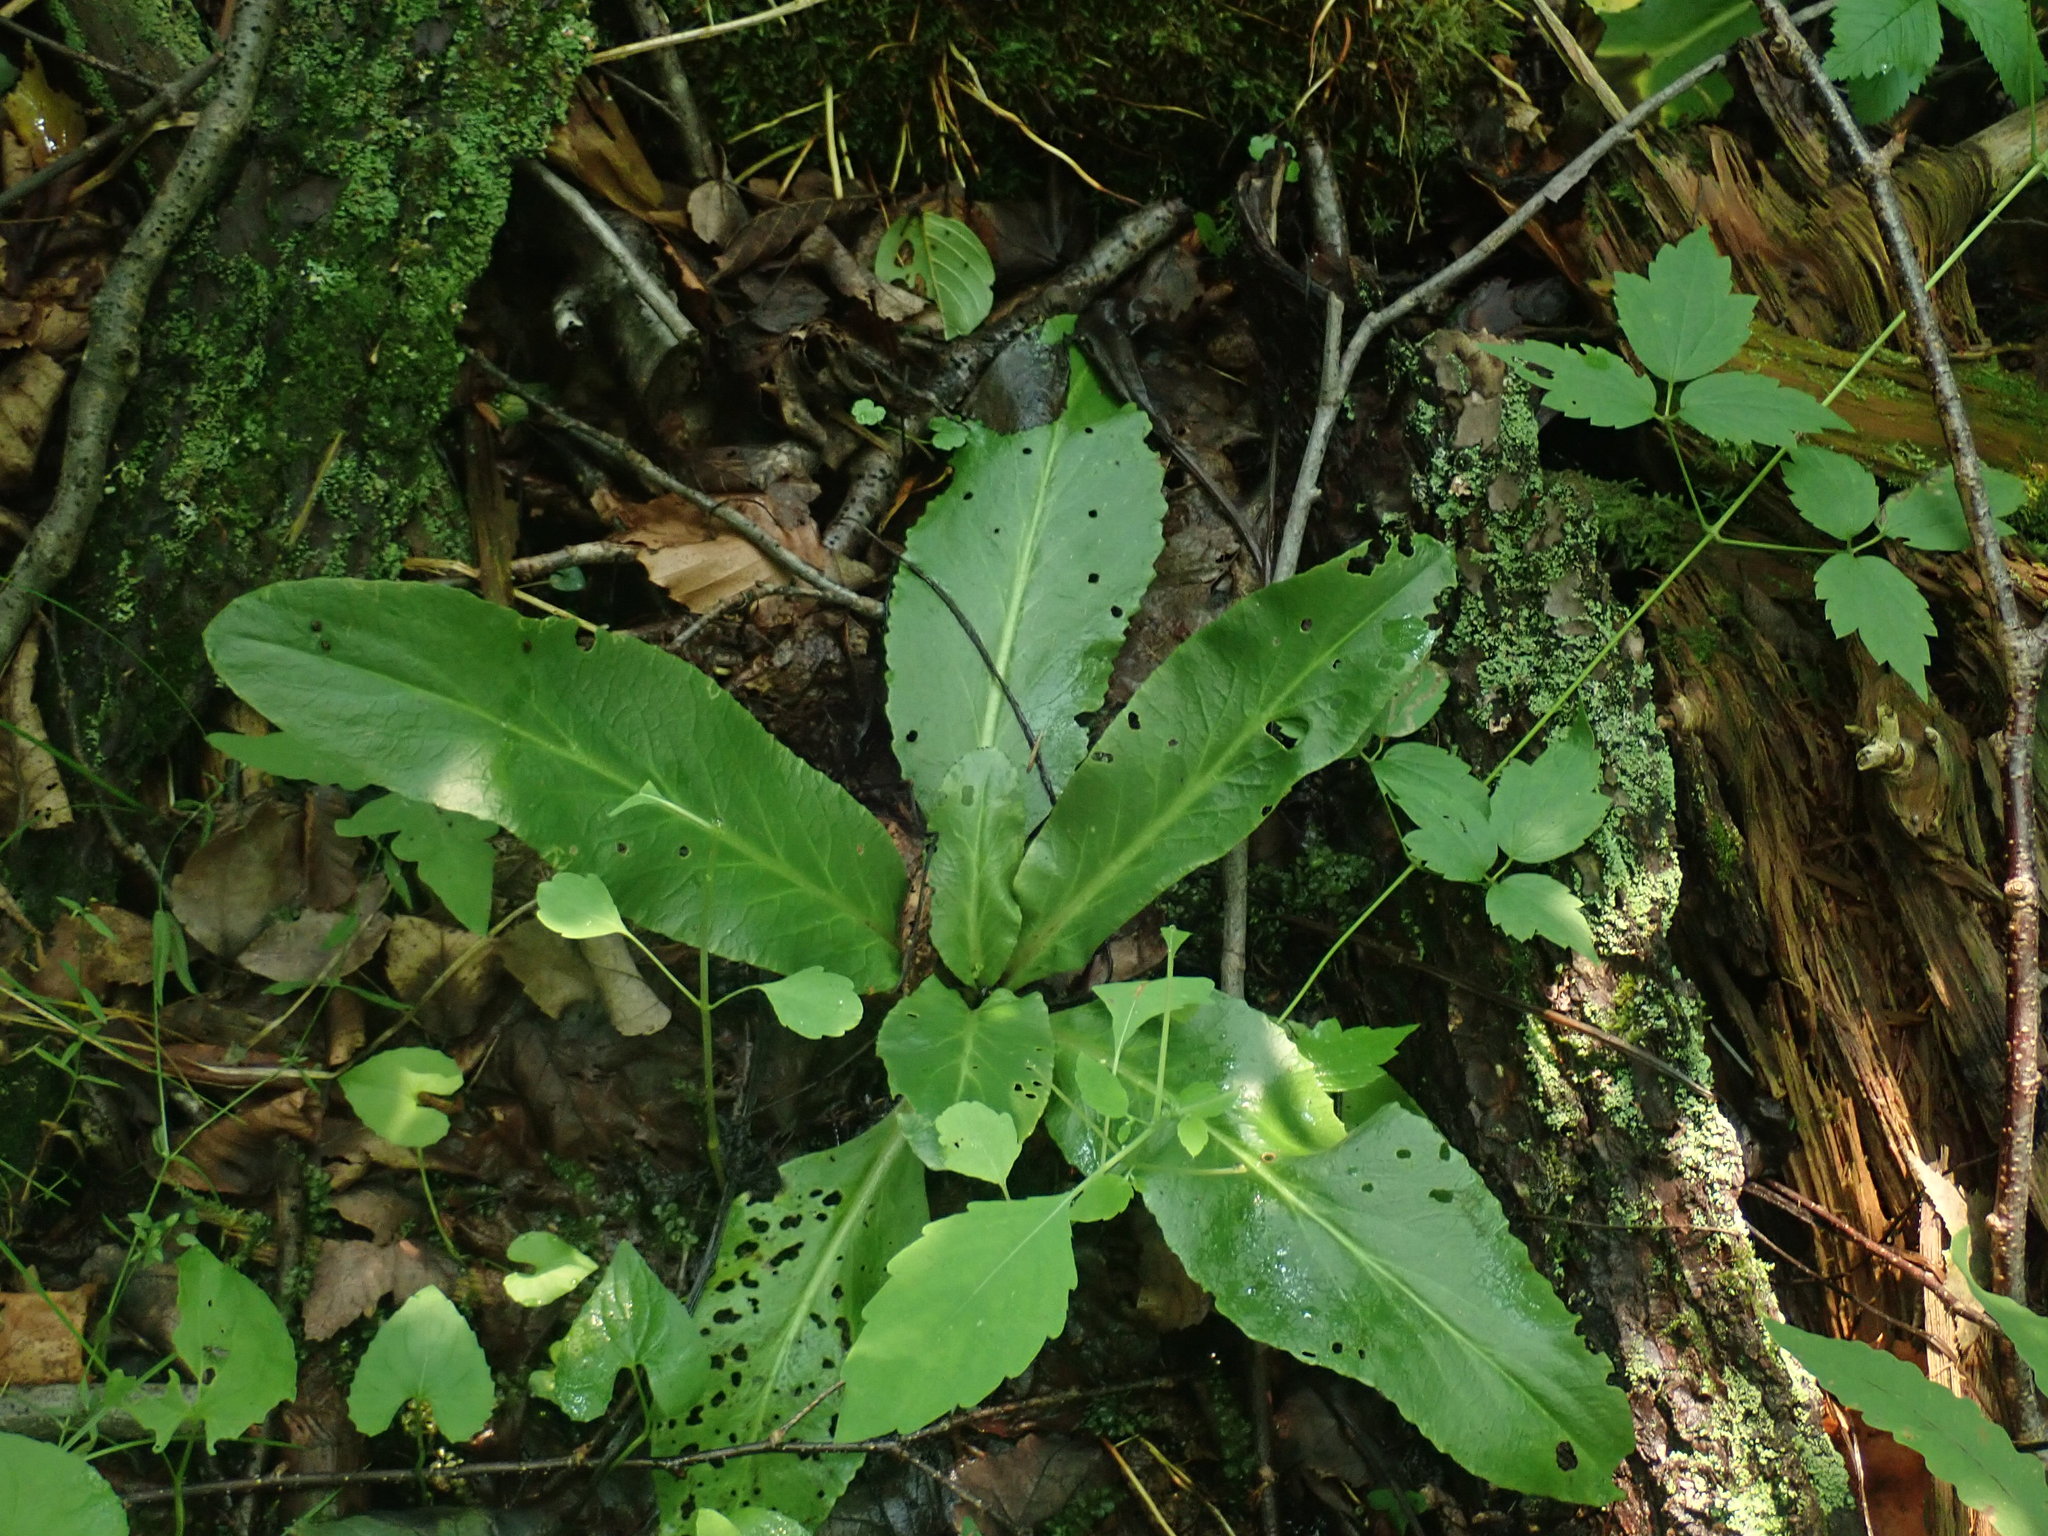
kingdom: Plantae
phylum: Tracheophyta
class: Magnoliopsida
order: Saxifragales
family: Saxifragaceae
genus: Micranthes
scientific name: Micranthes pensylvanica
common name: Marsh saxifrage
